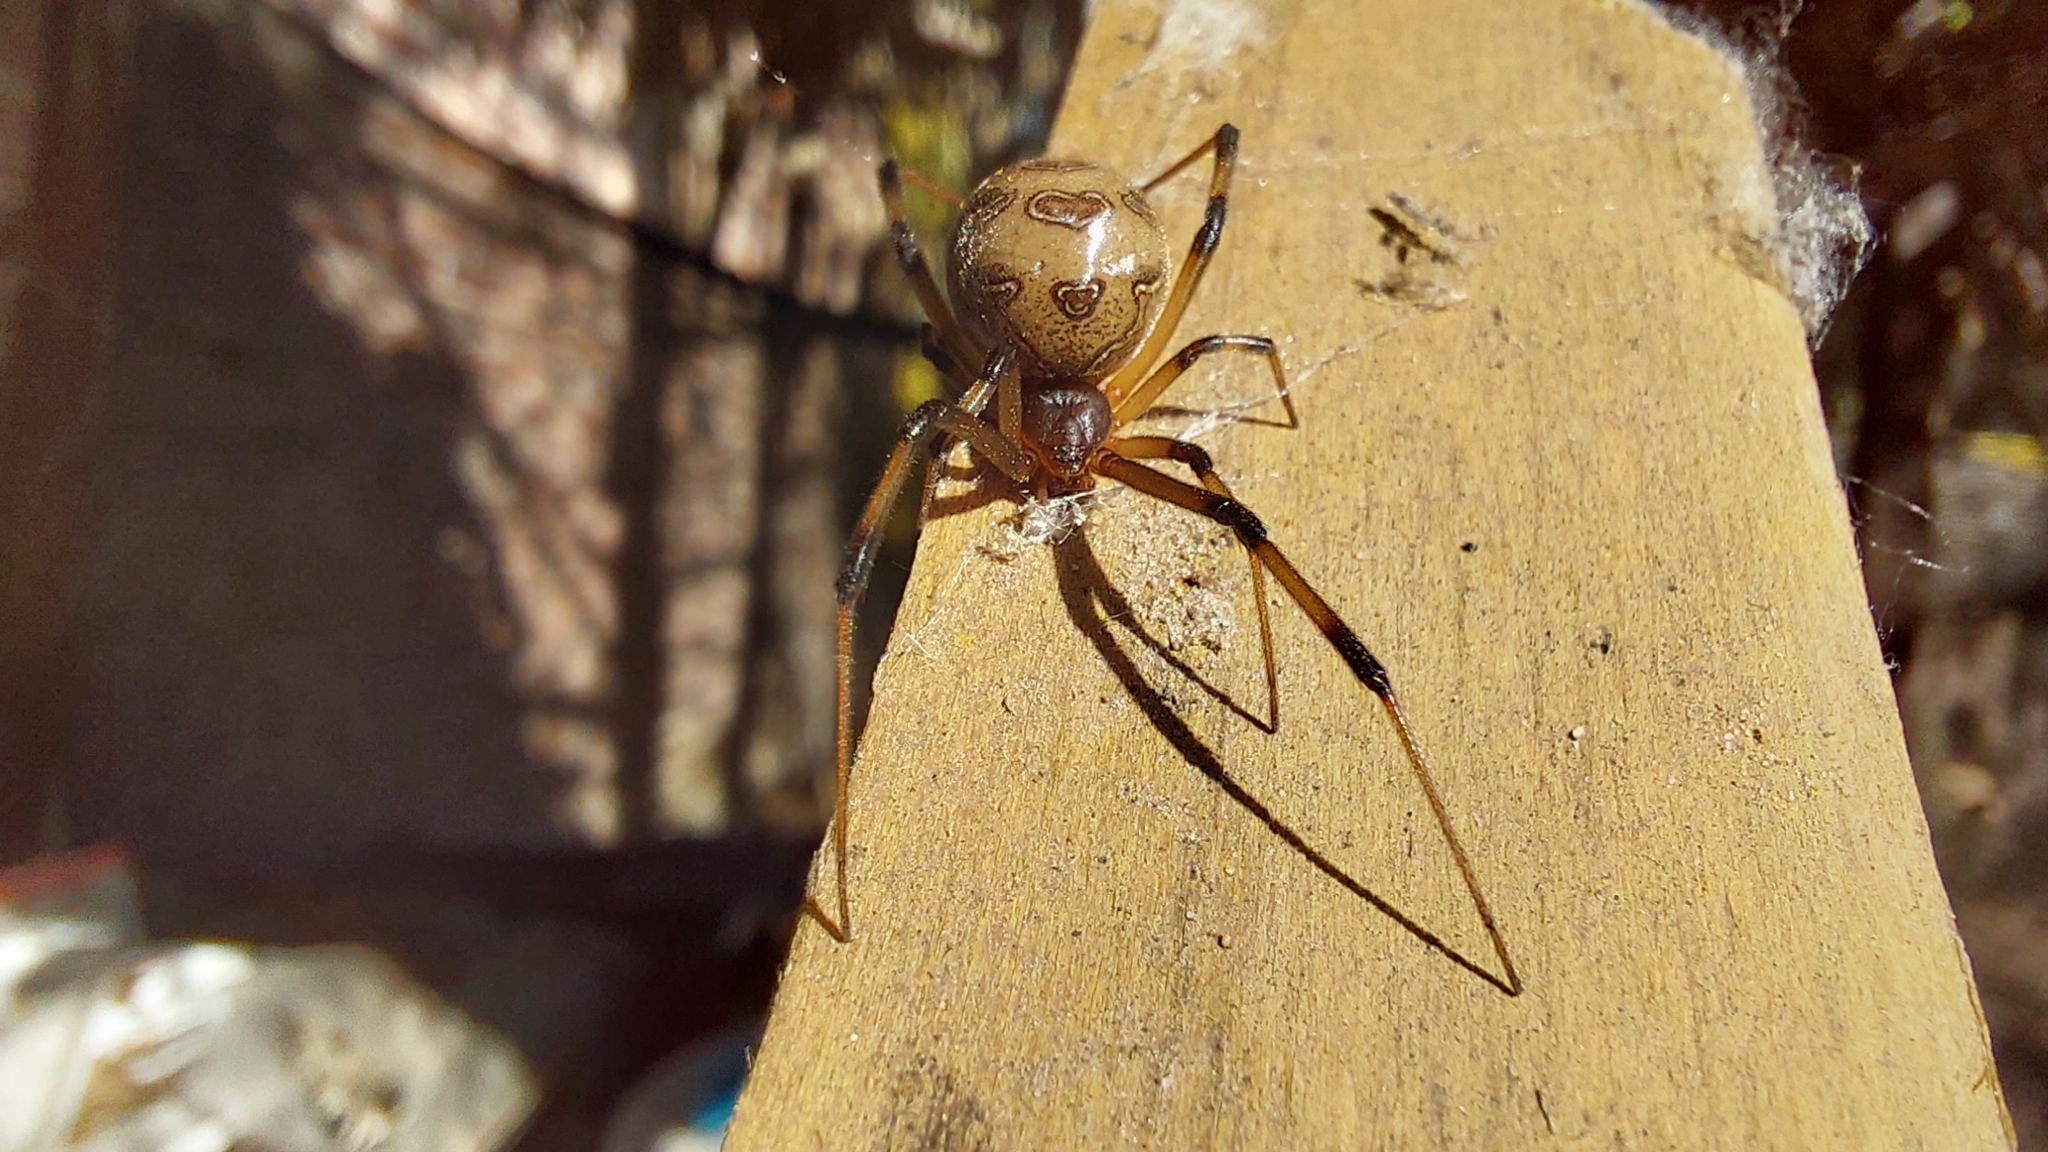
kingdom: Animalia
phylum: Arthropoda
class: Arachnida
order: Araneae
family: Theridiidae
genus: Latrodectus
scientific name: Latrodectus geometricus
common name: Brown widow spider
